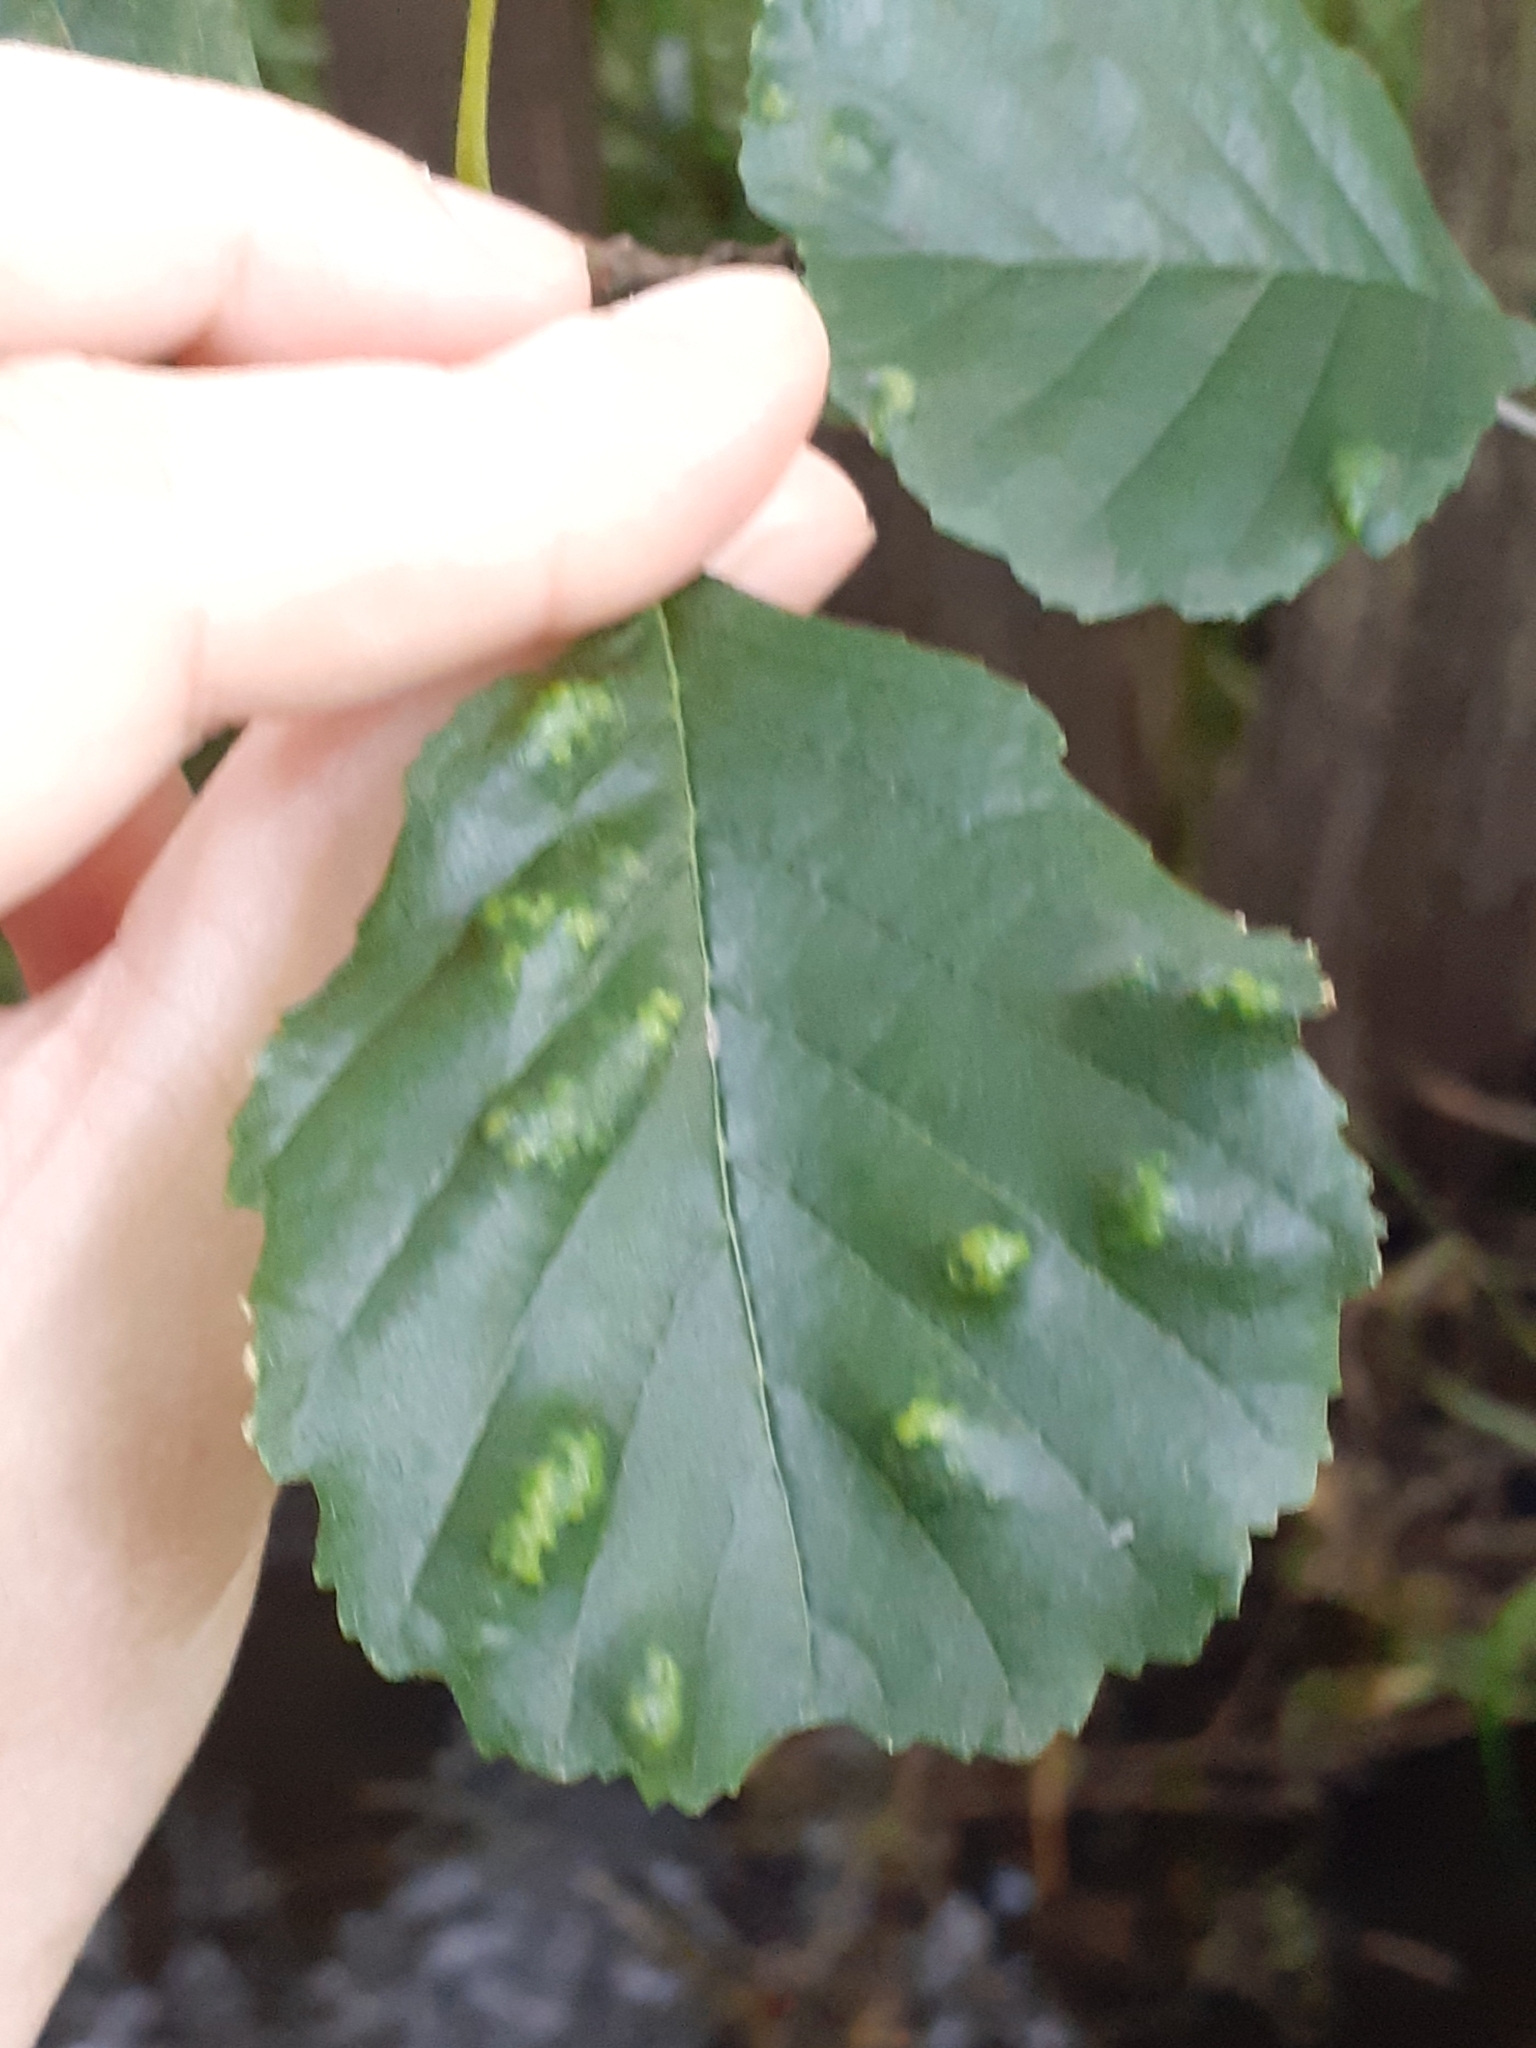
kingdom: Animalia
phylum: Arthropoda
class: Arachnida
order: Trombidiformes
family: Eriophyidae
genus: Acalitus
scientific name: Acalitus brevitarsus
